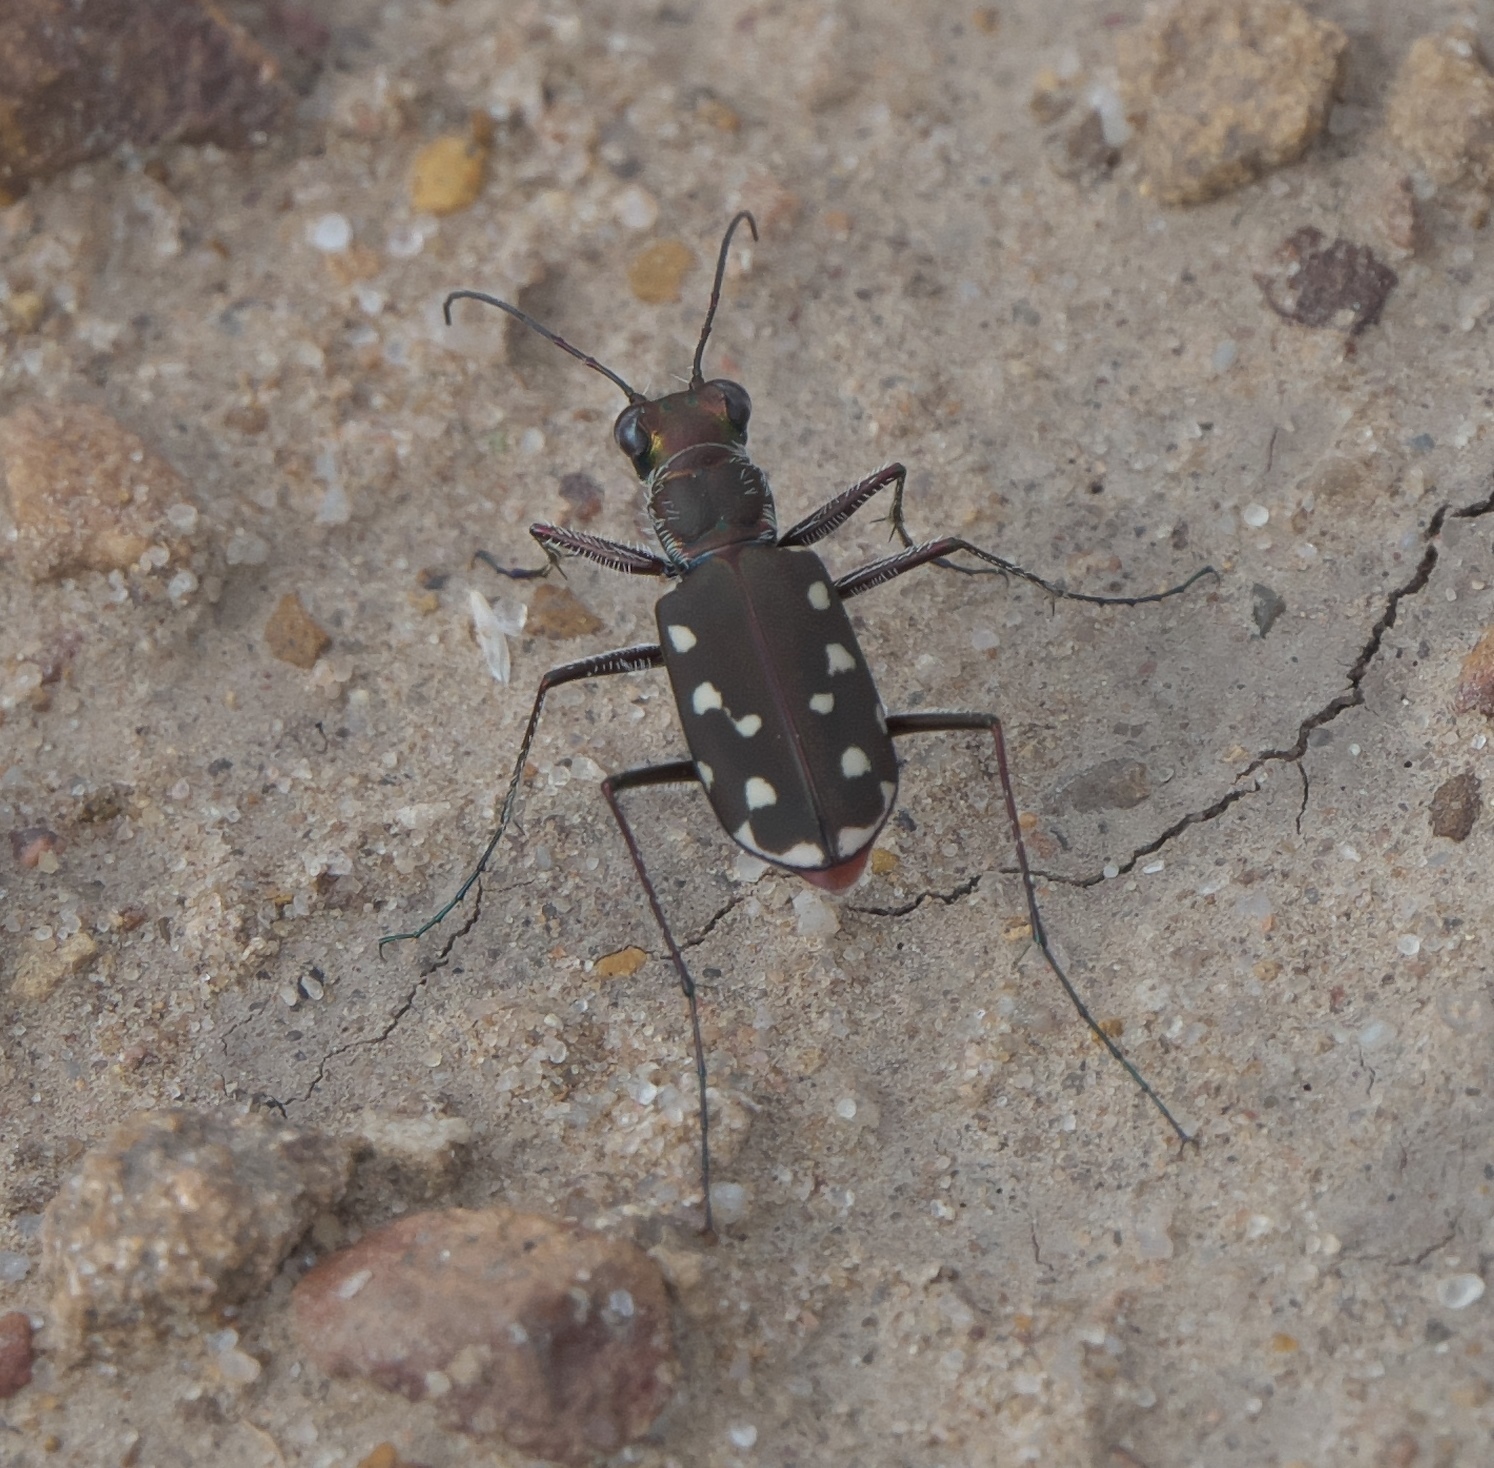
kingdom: Animalia
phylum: Arthropoda
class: Insecta
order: Coleoptera
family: Carabidae
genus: Cicindela
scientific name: Cicindela sedecimpunctata
